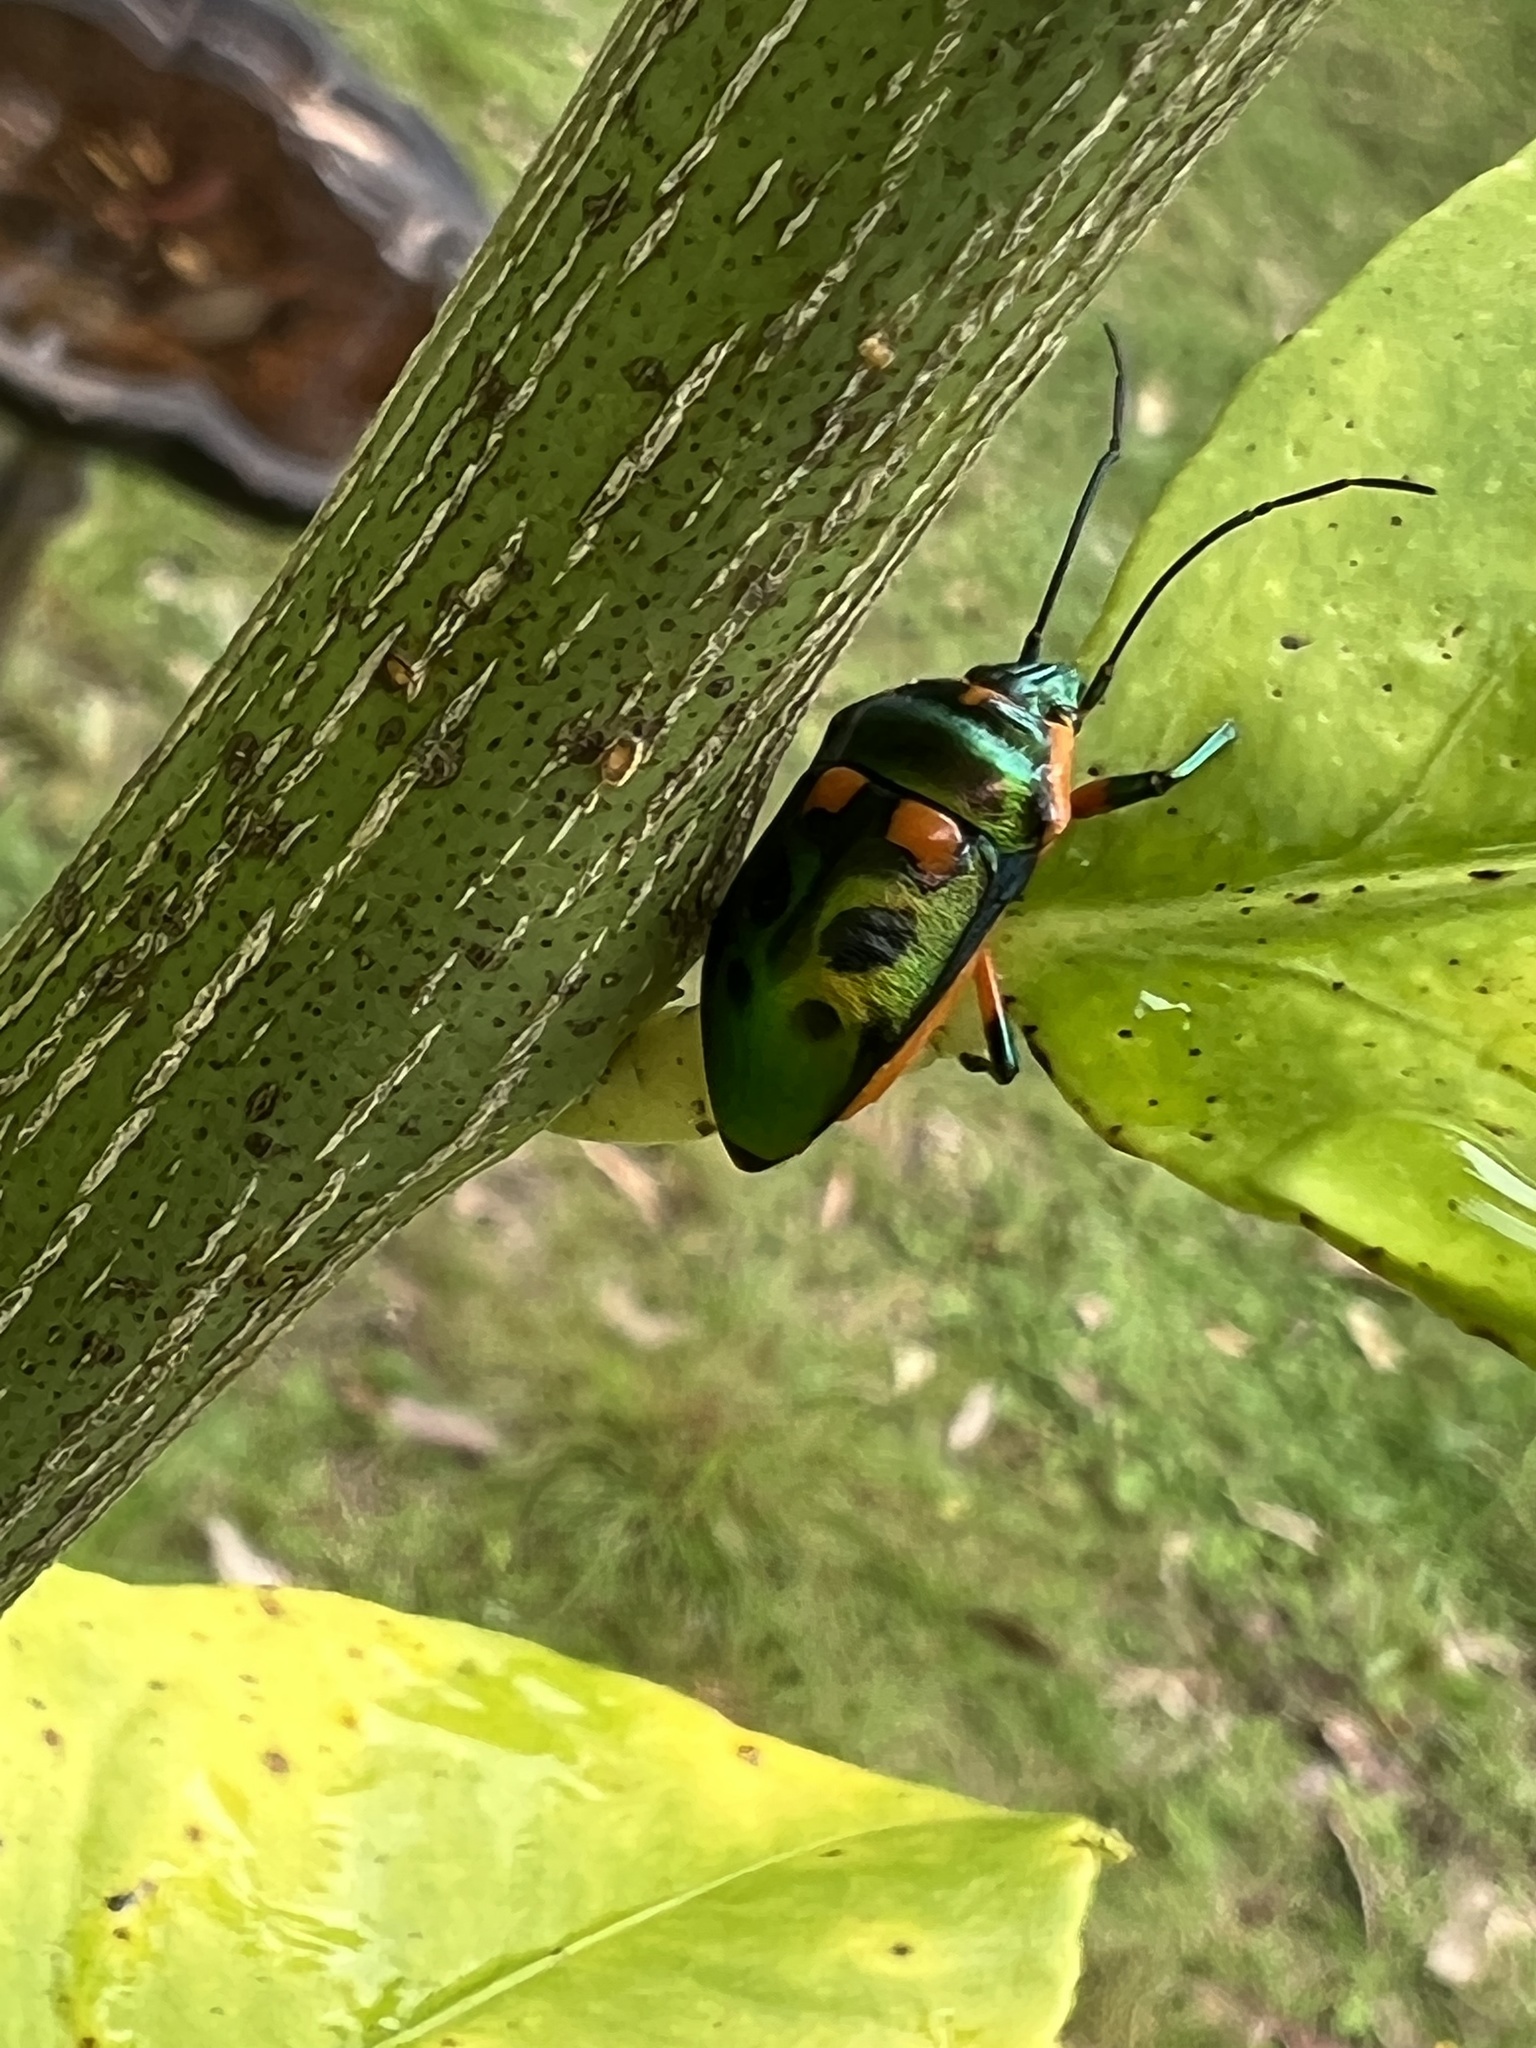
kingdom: Animalia
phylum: Arthropoda
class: Insecta
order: Hemiptera
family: Scutelleridae
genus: Scutiphora
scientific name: Scutiphora pedicellata
